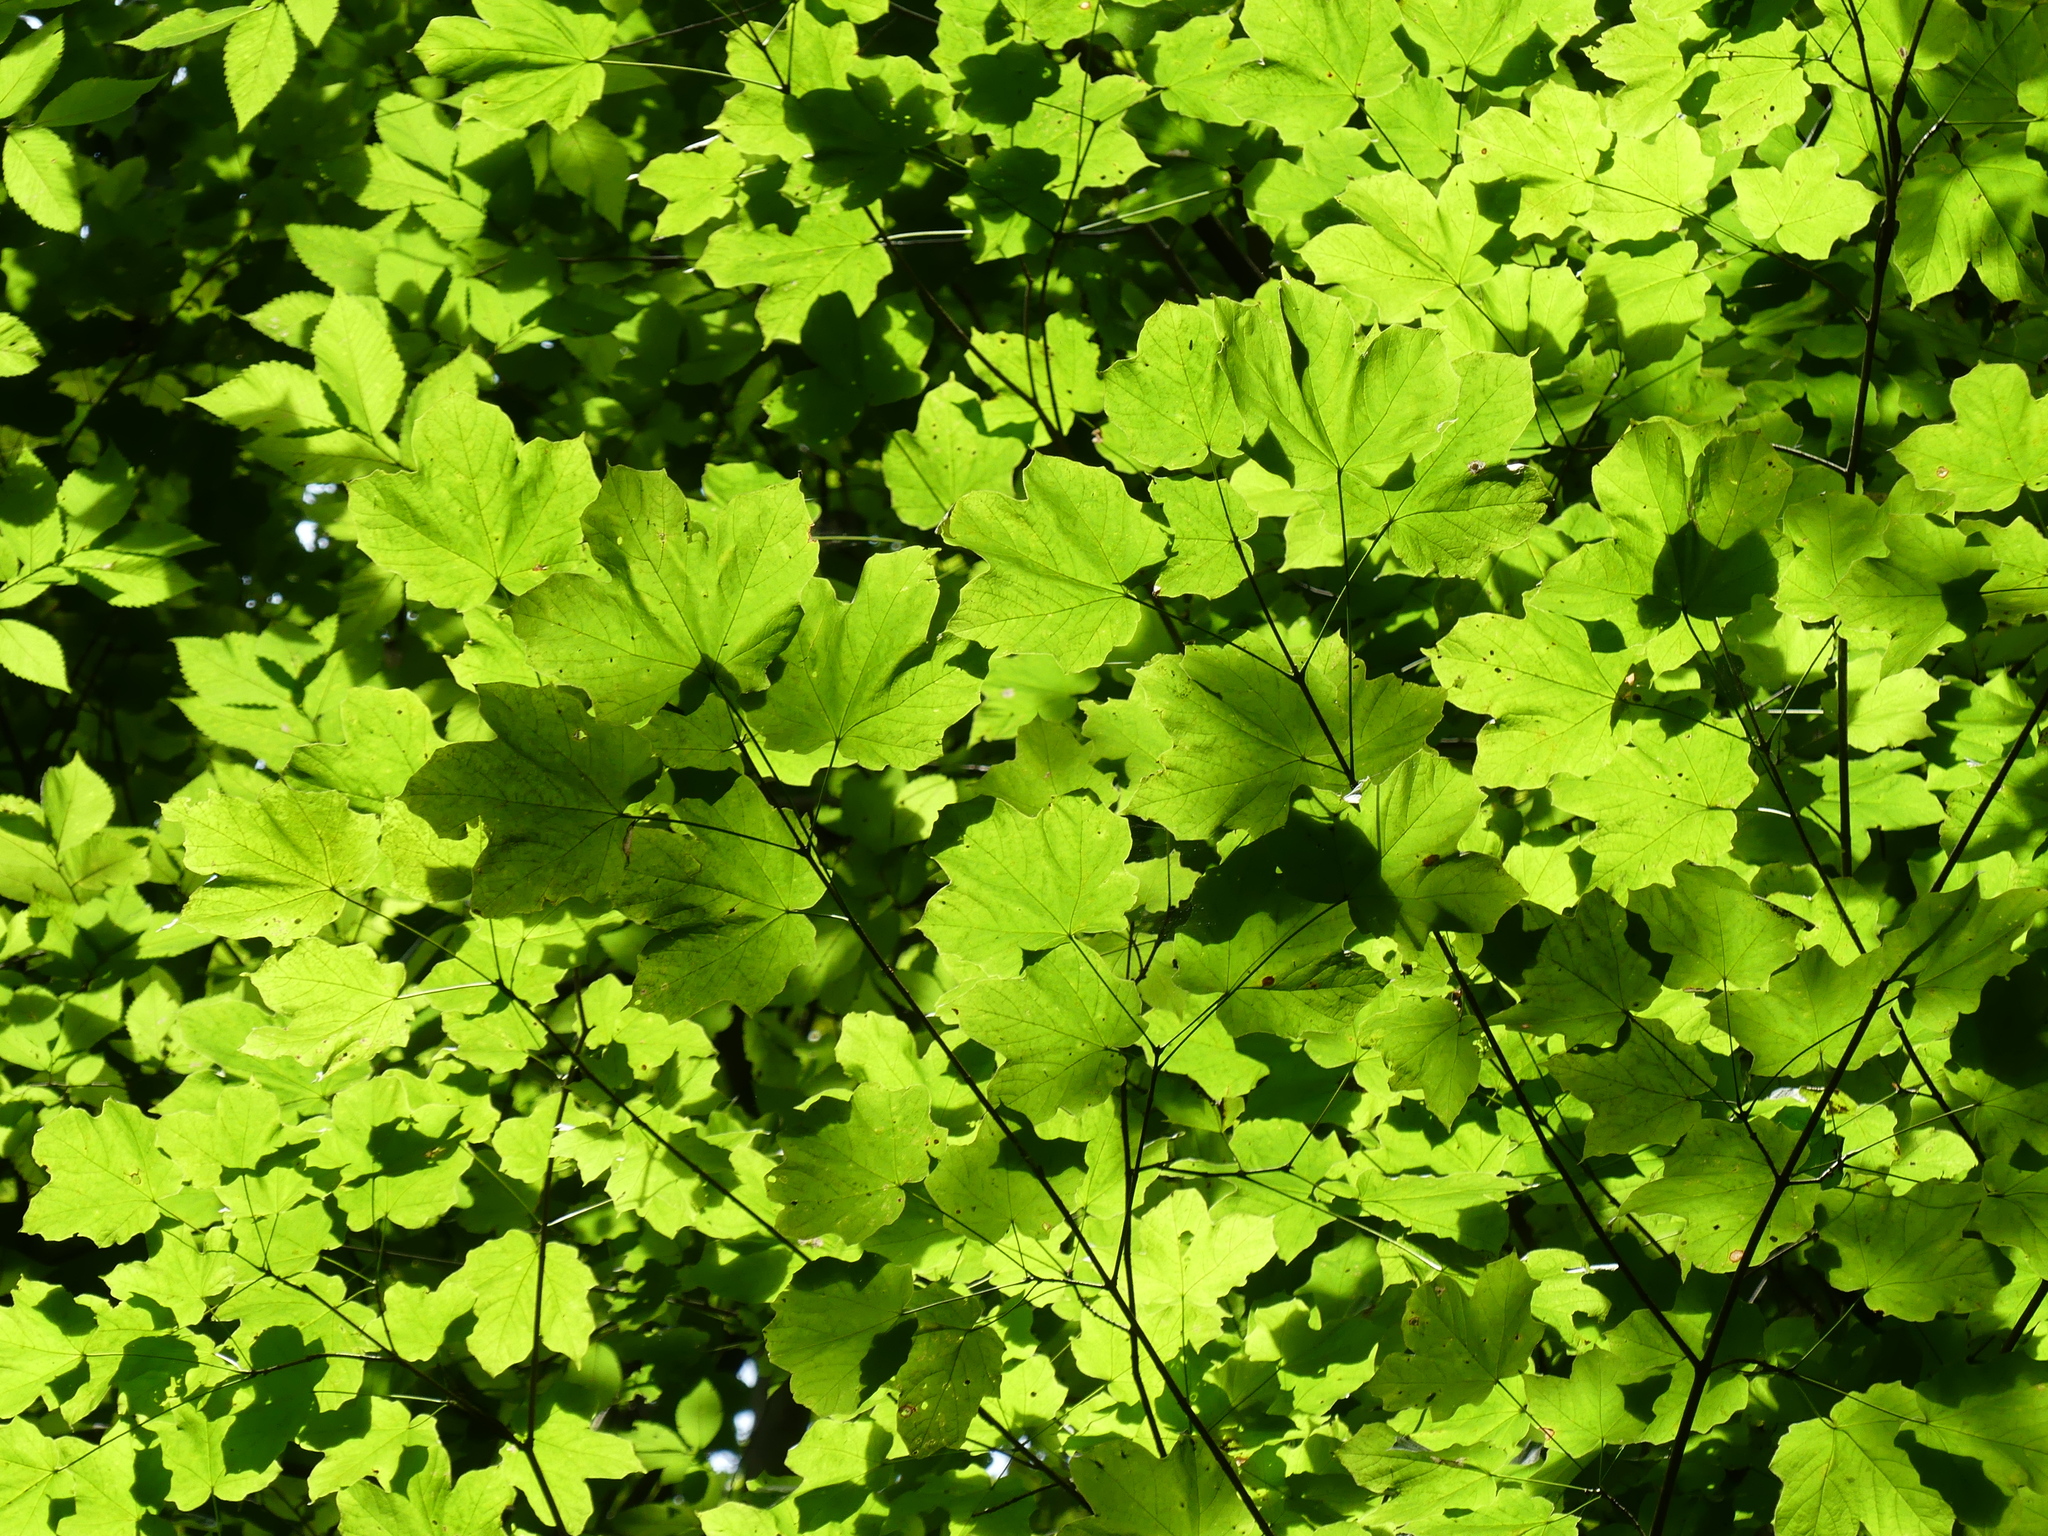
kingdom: Plantae
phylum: Tracheophyta
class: Magnoliopsida
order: Sapindales
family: Sapindaceae
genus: Acer
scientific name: Acer nigrum
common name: Black maple
